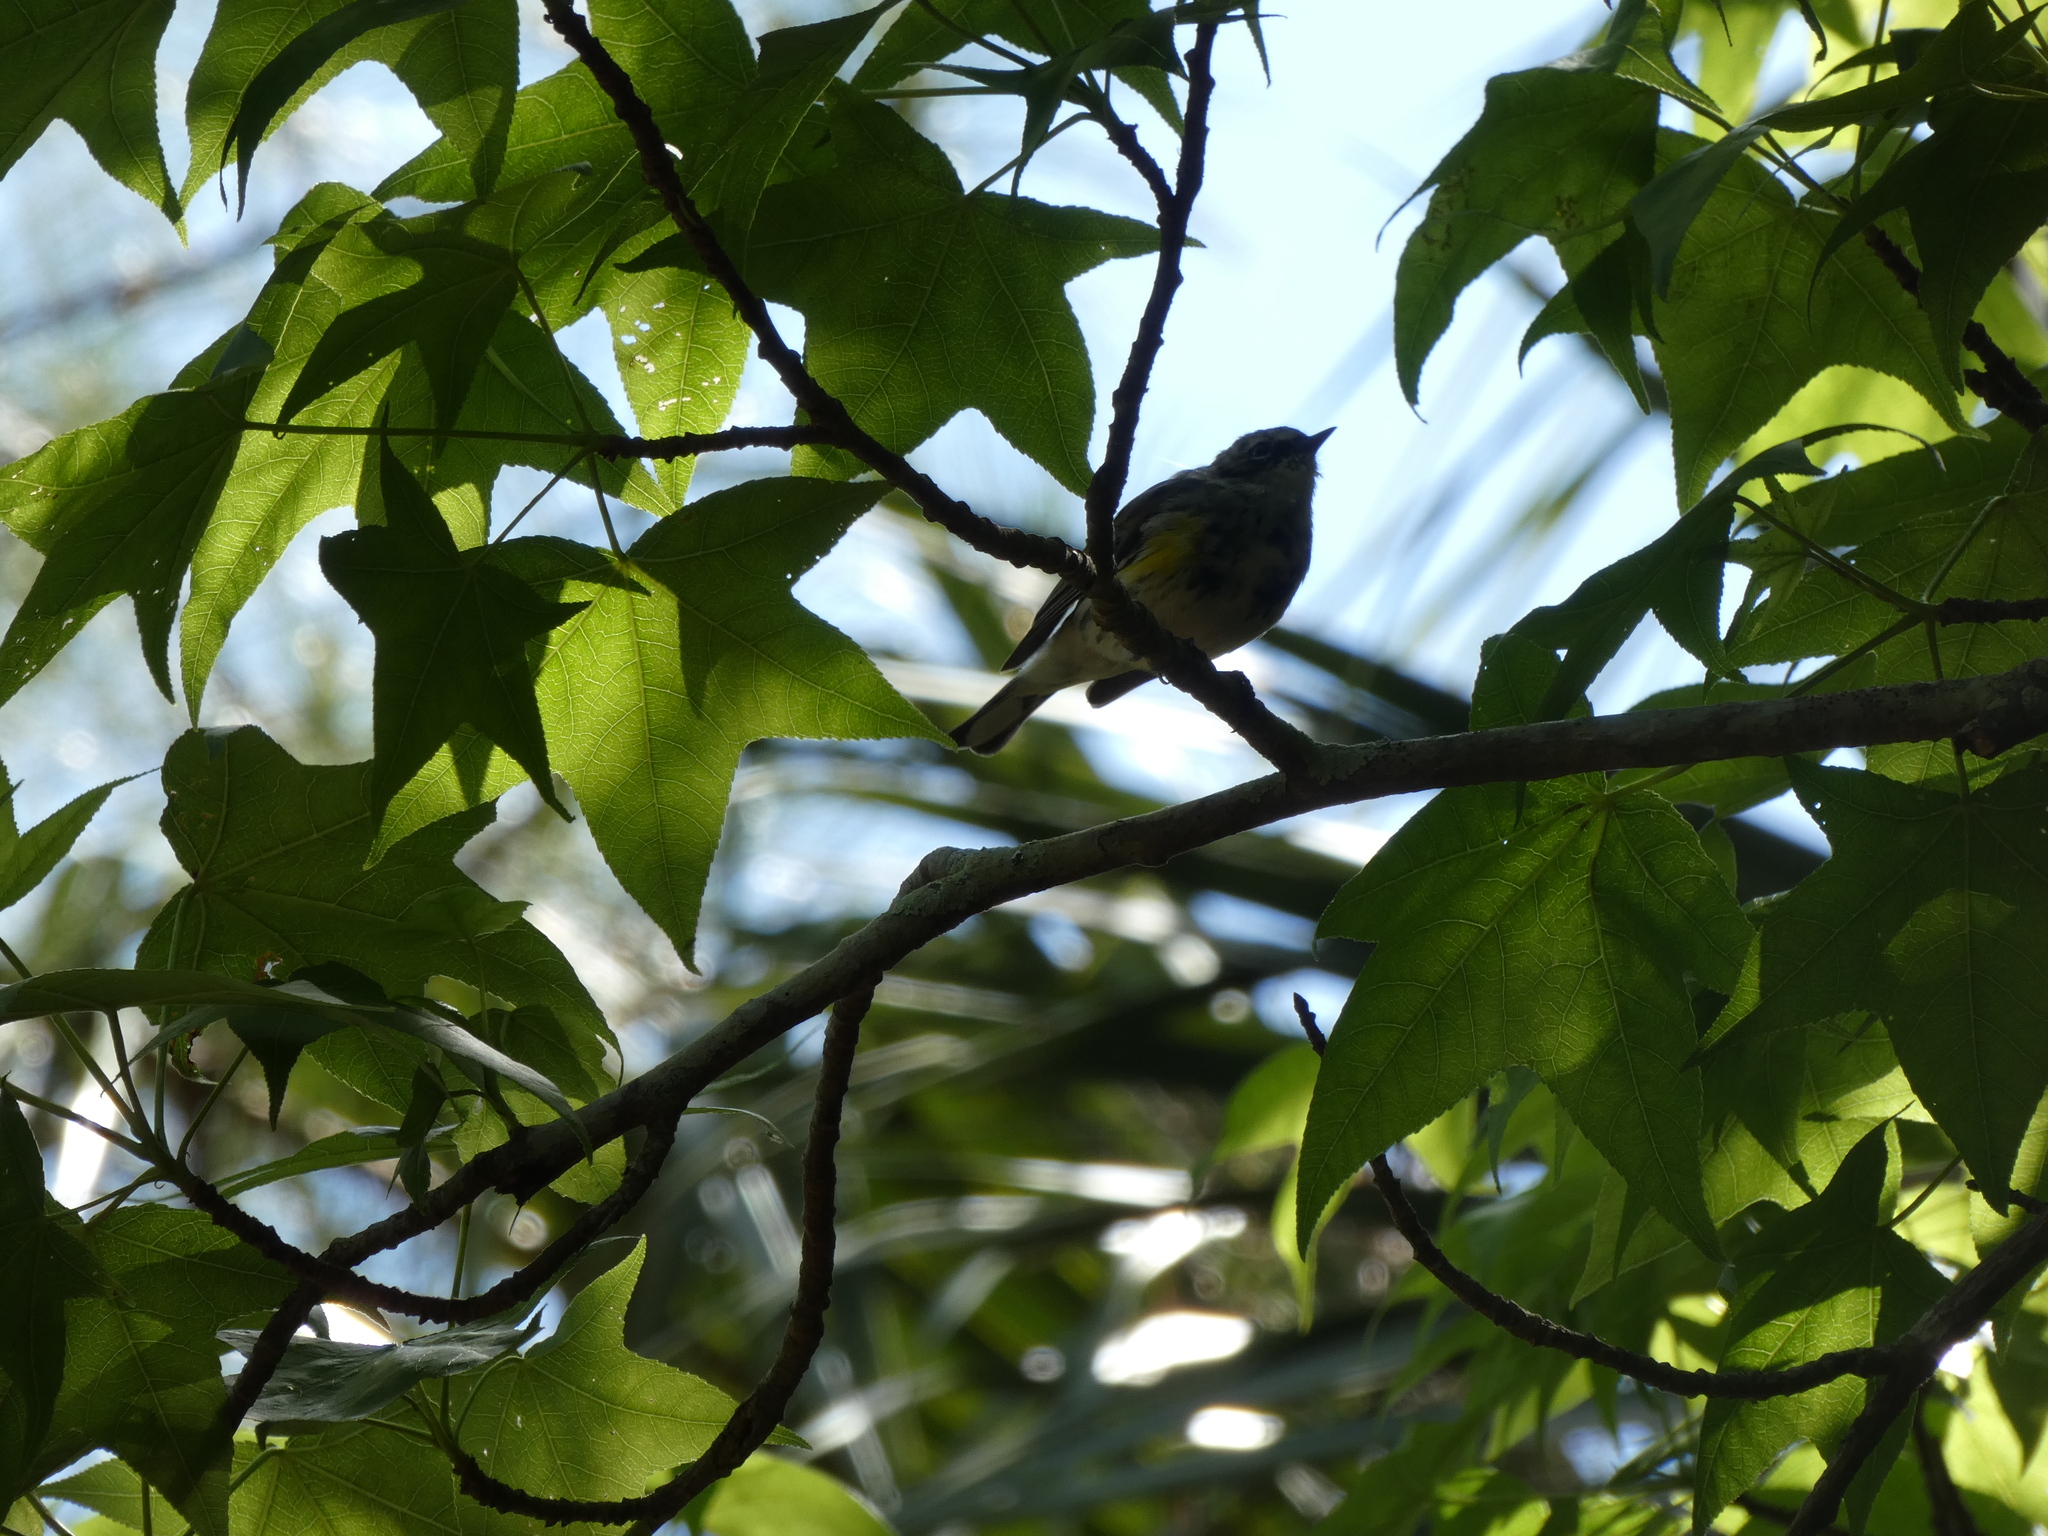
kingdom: Animalia
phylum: Chordata
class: Aves
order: Passeriformes
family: Parulidae
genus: Setophaga
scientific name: Setophaga coronata
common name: Myrtle warbler
